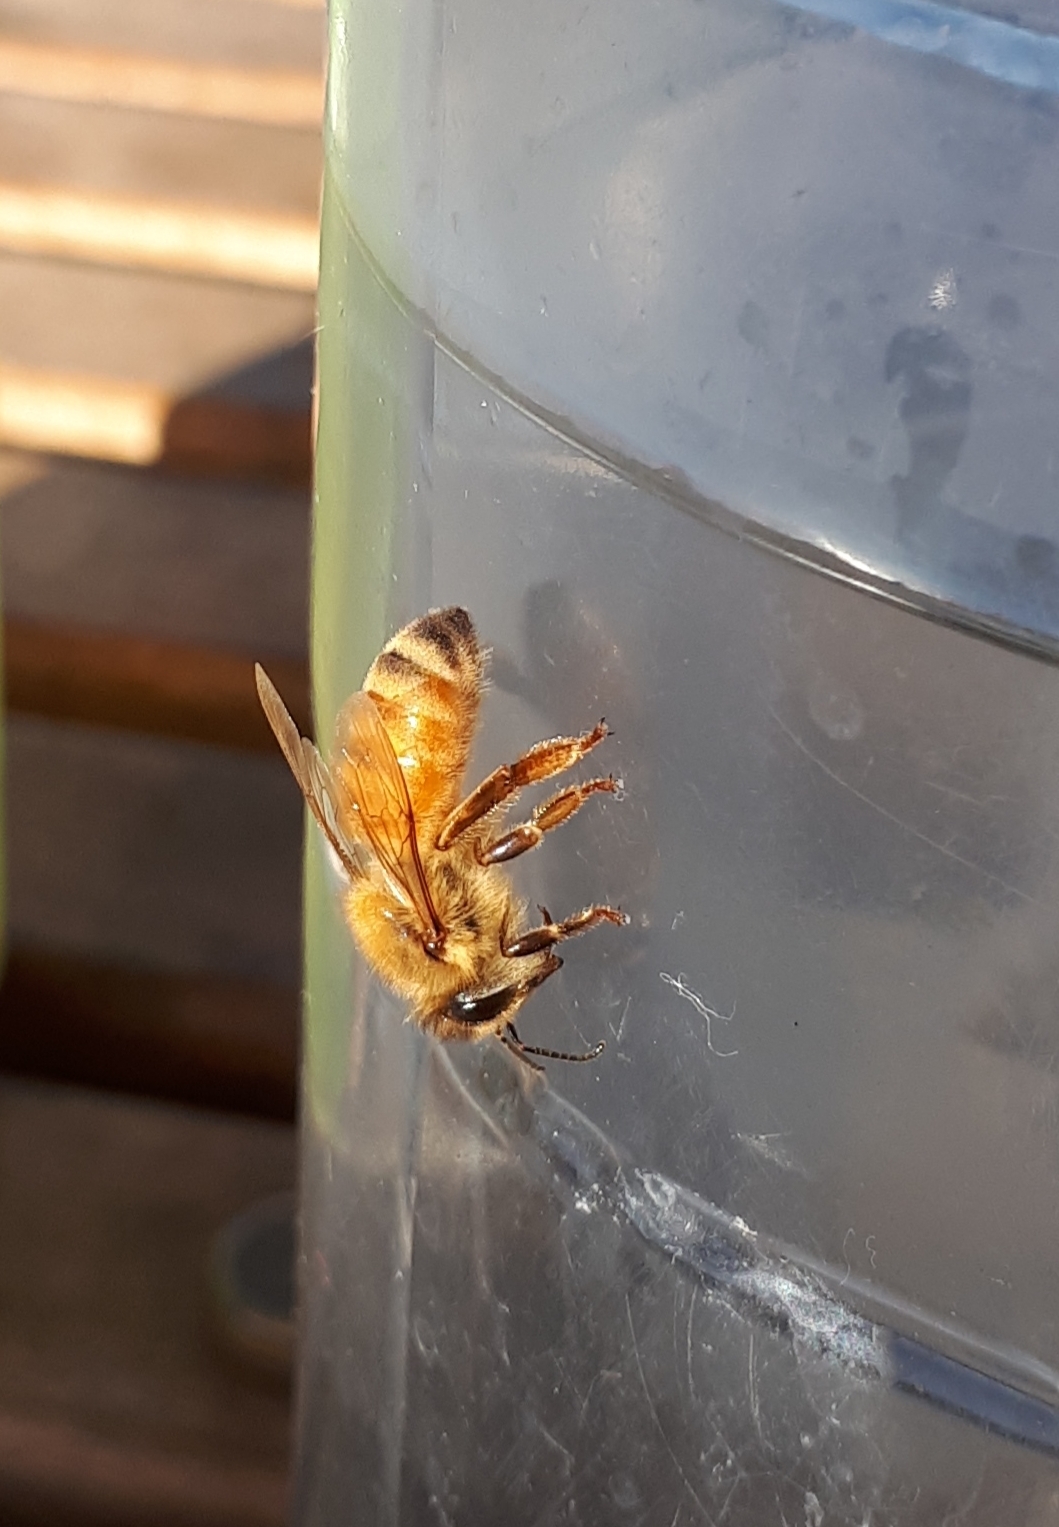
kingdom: Animalia
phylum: Arthropoda
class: Insecta
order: Hymenoptera
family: Apidae
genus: Apis
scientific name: Apis mellifera
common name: Honey bee
